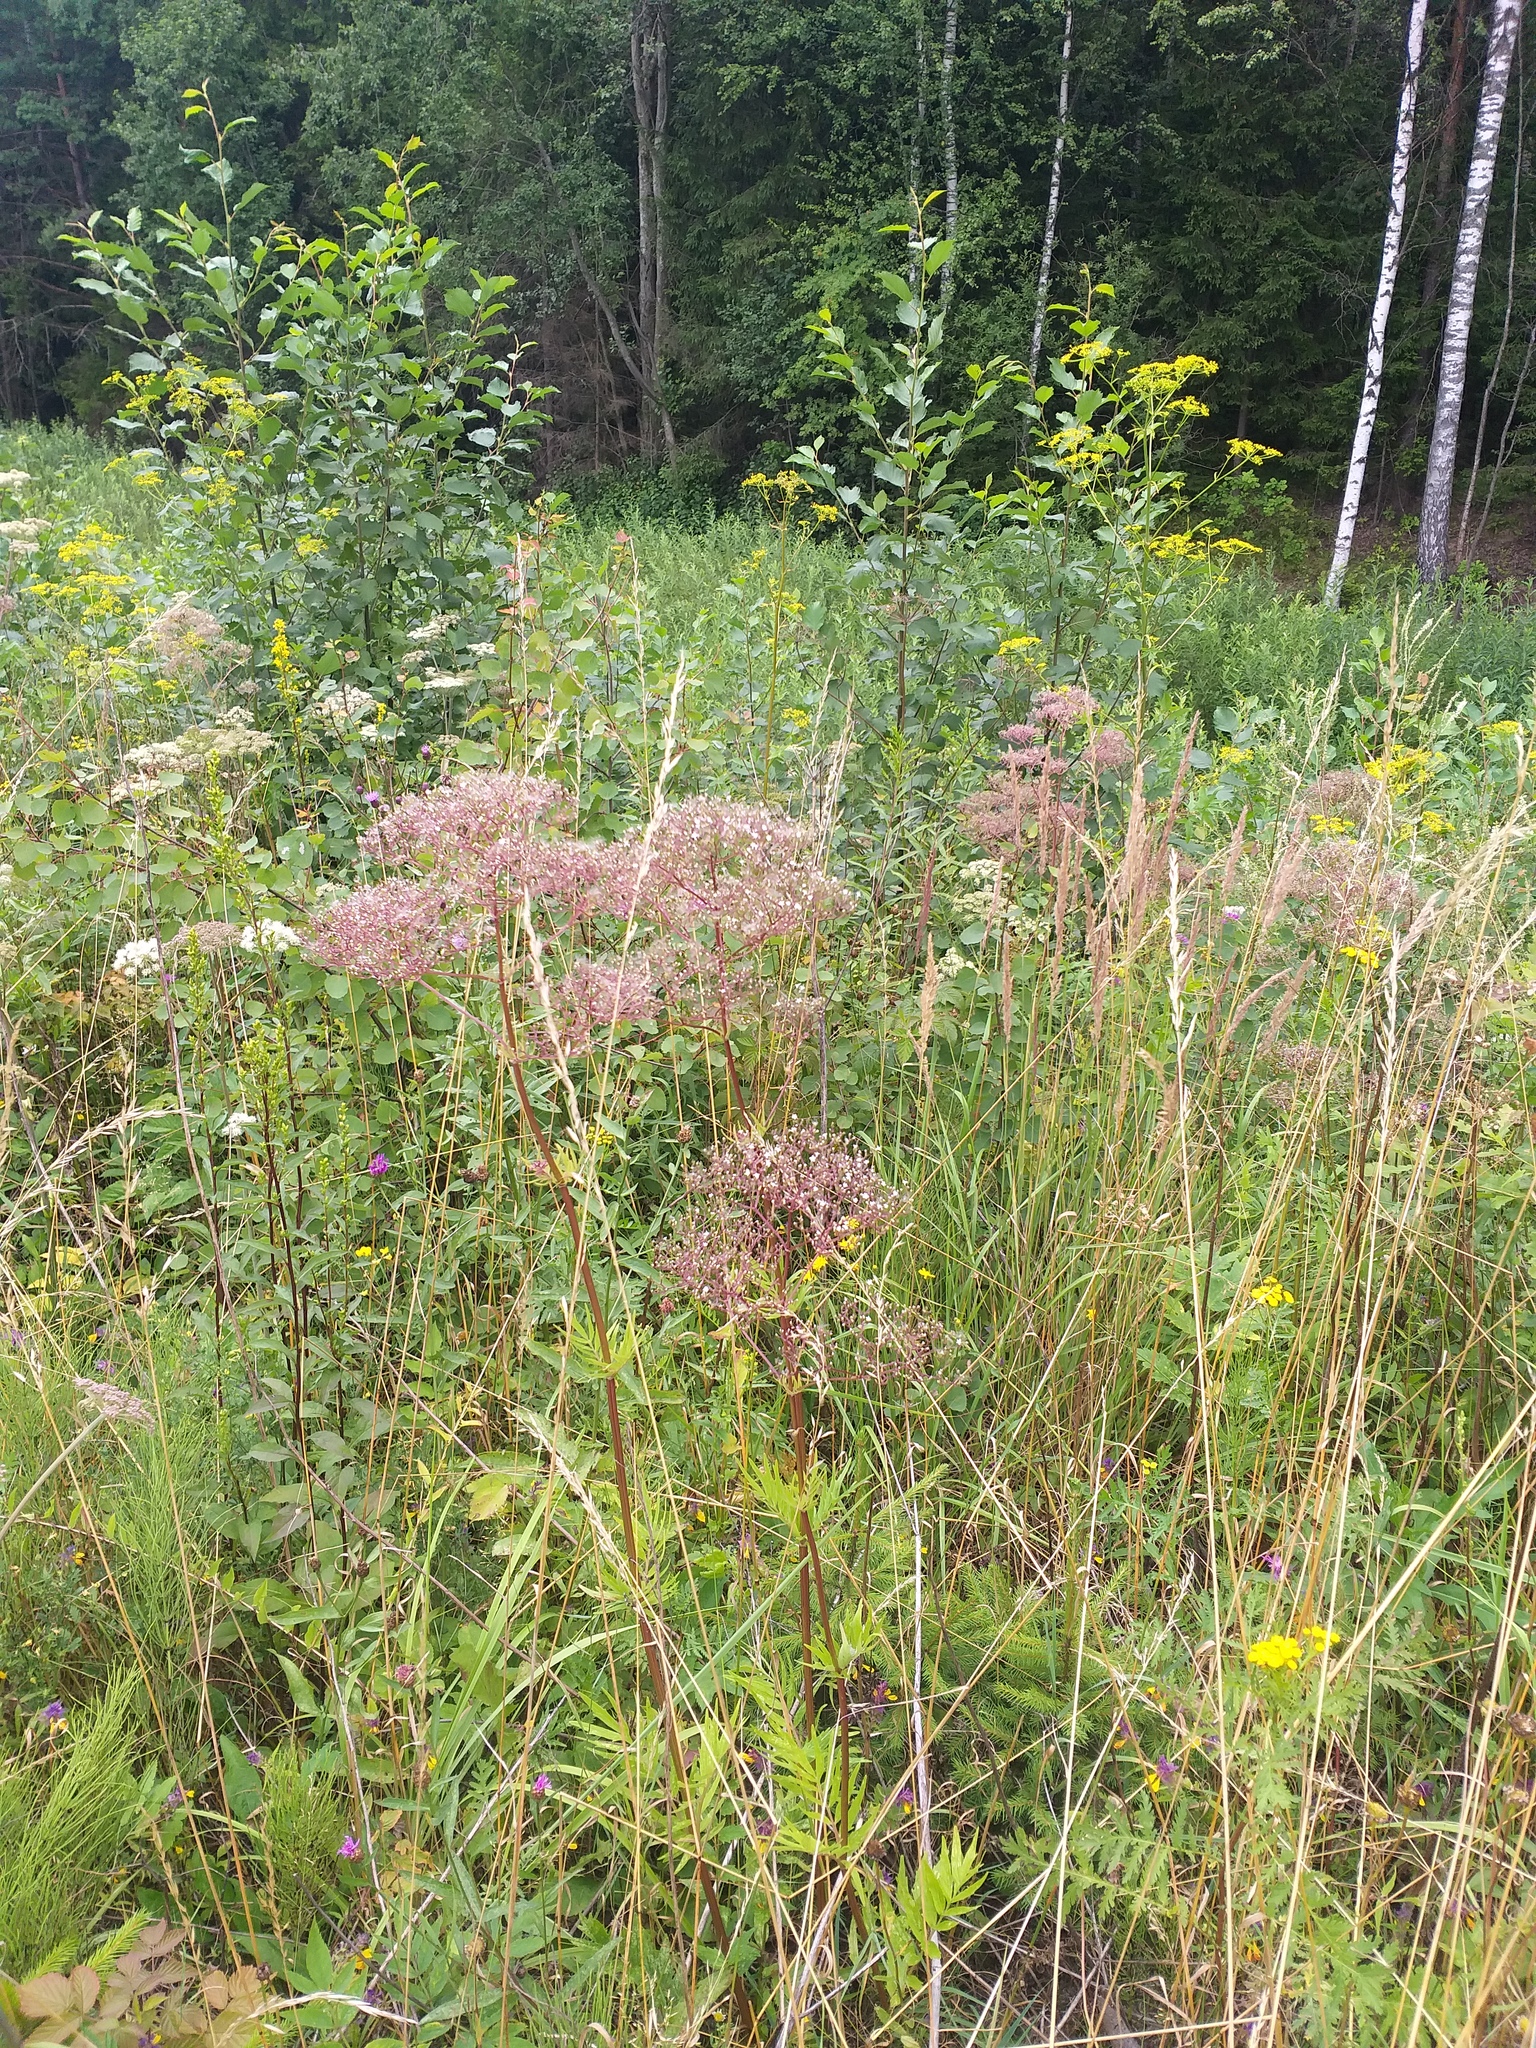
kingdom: Plantae
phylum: Tracheophyta
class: Magnoliopsida
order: Dipsacales
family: Caprifoliaceae
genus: Valeriana
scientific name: Valeriana officinalis
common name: Common valerian
